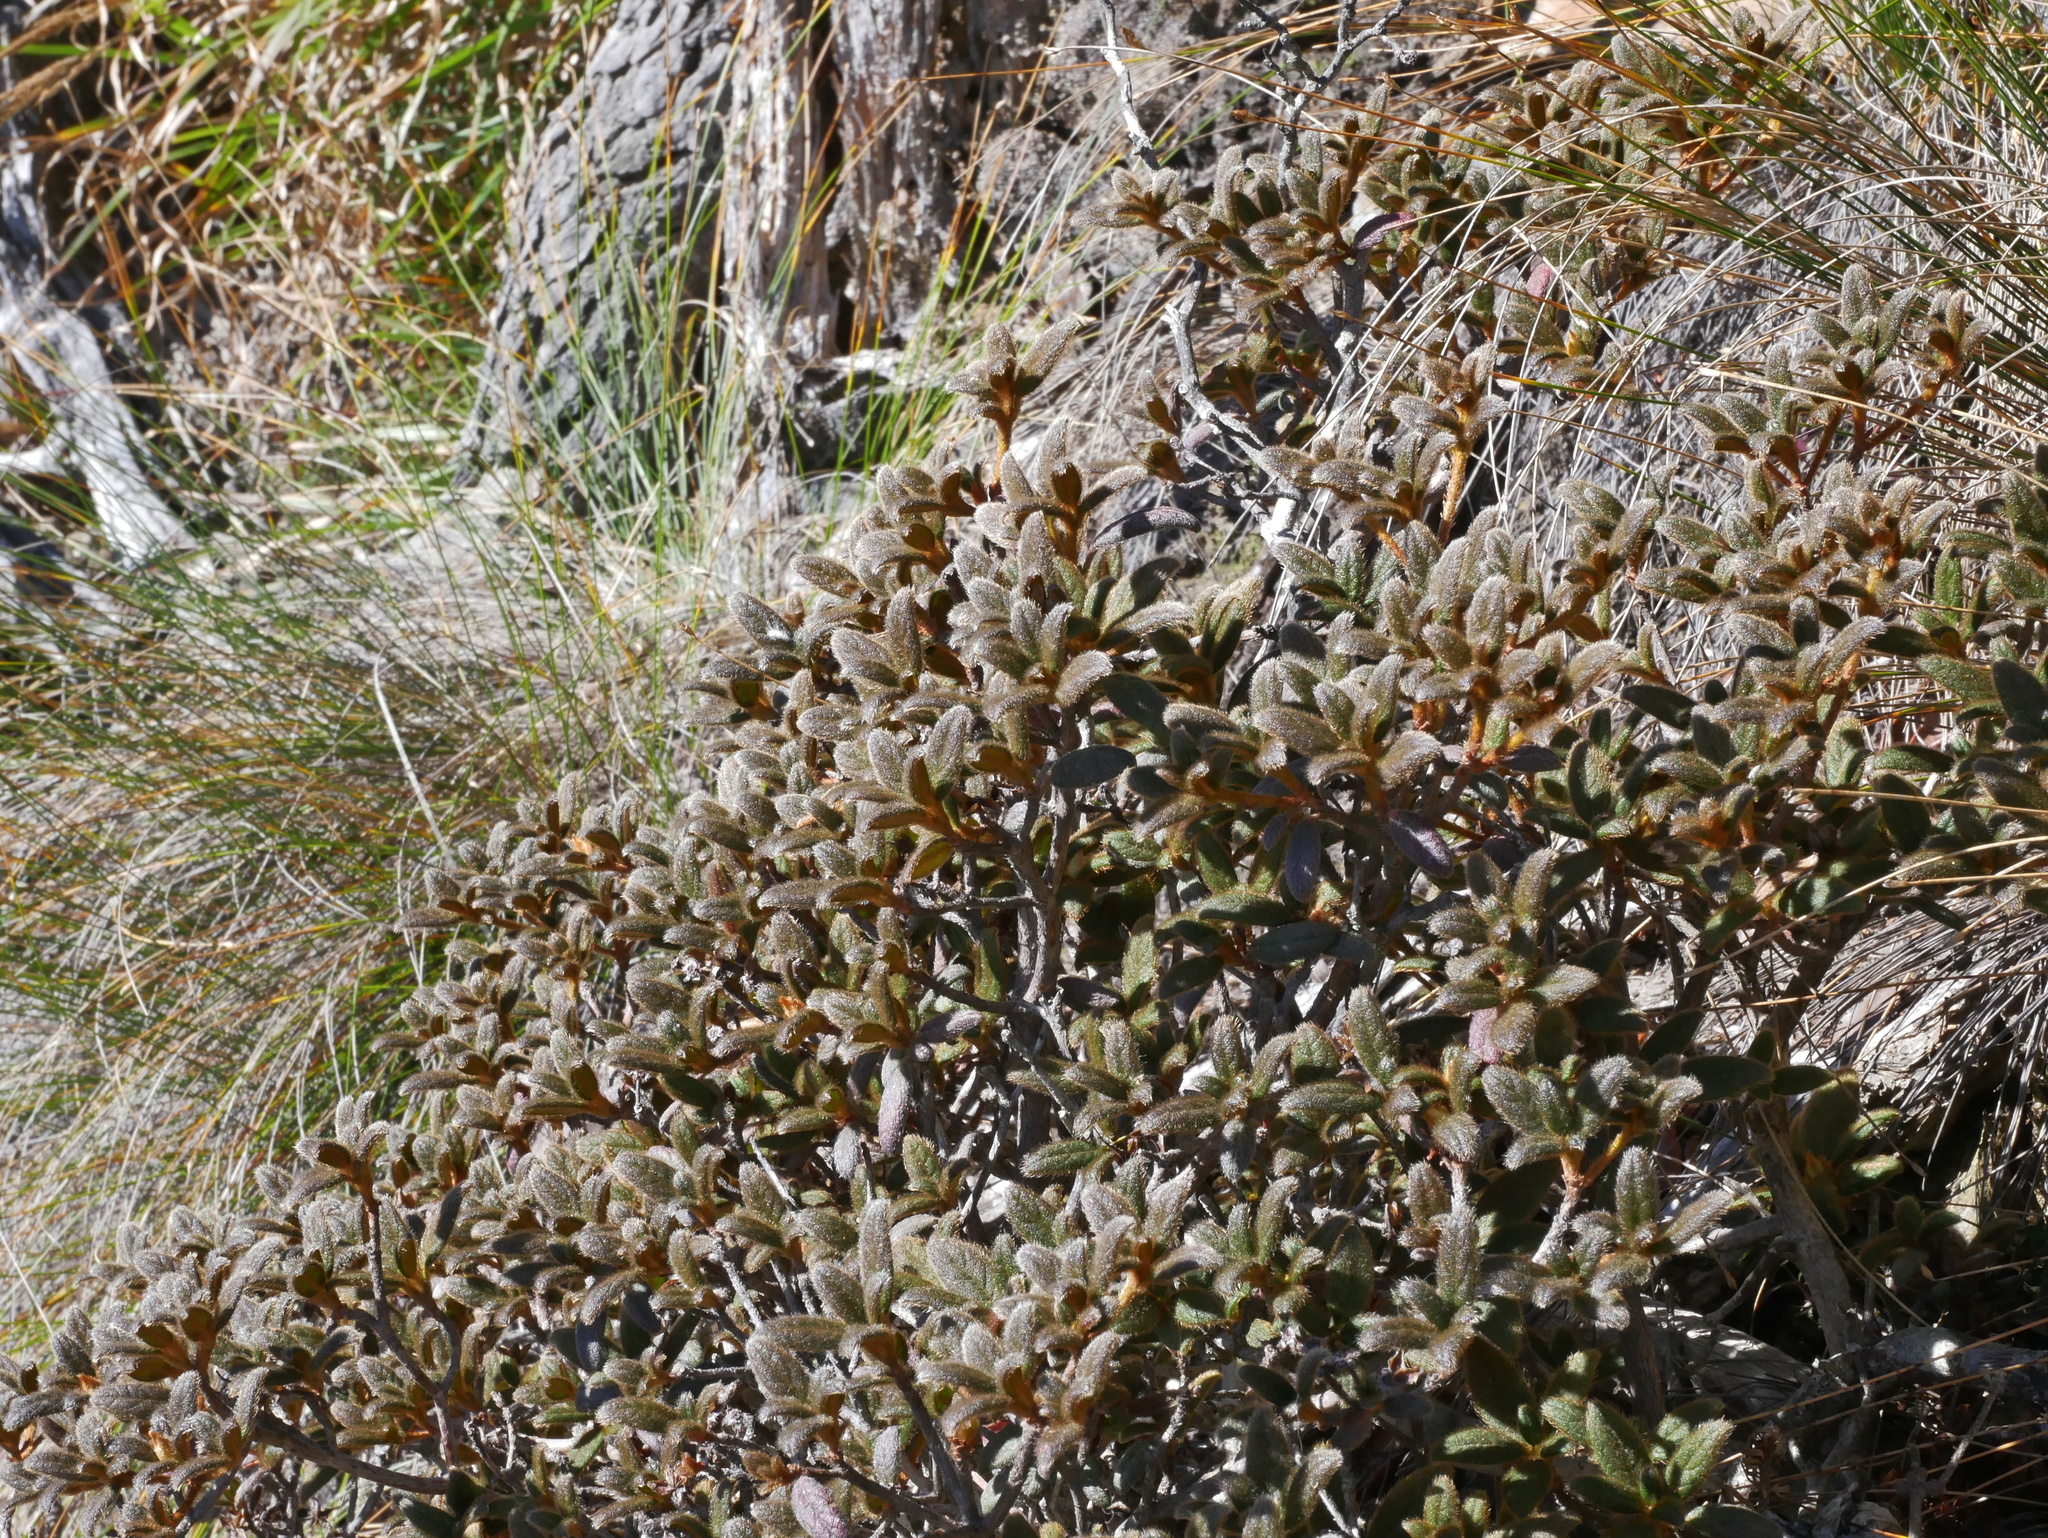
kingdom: Plantae
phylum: Tracheophyta
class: Magnoliopsida
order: Ericales
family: Ericaceae
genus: Rhododendron
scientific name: Rhododendron taiwanalpinum
